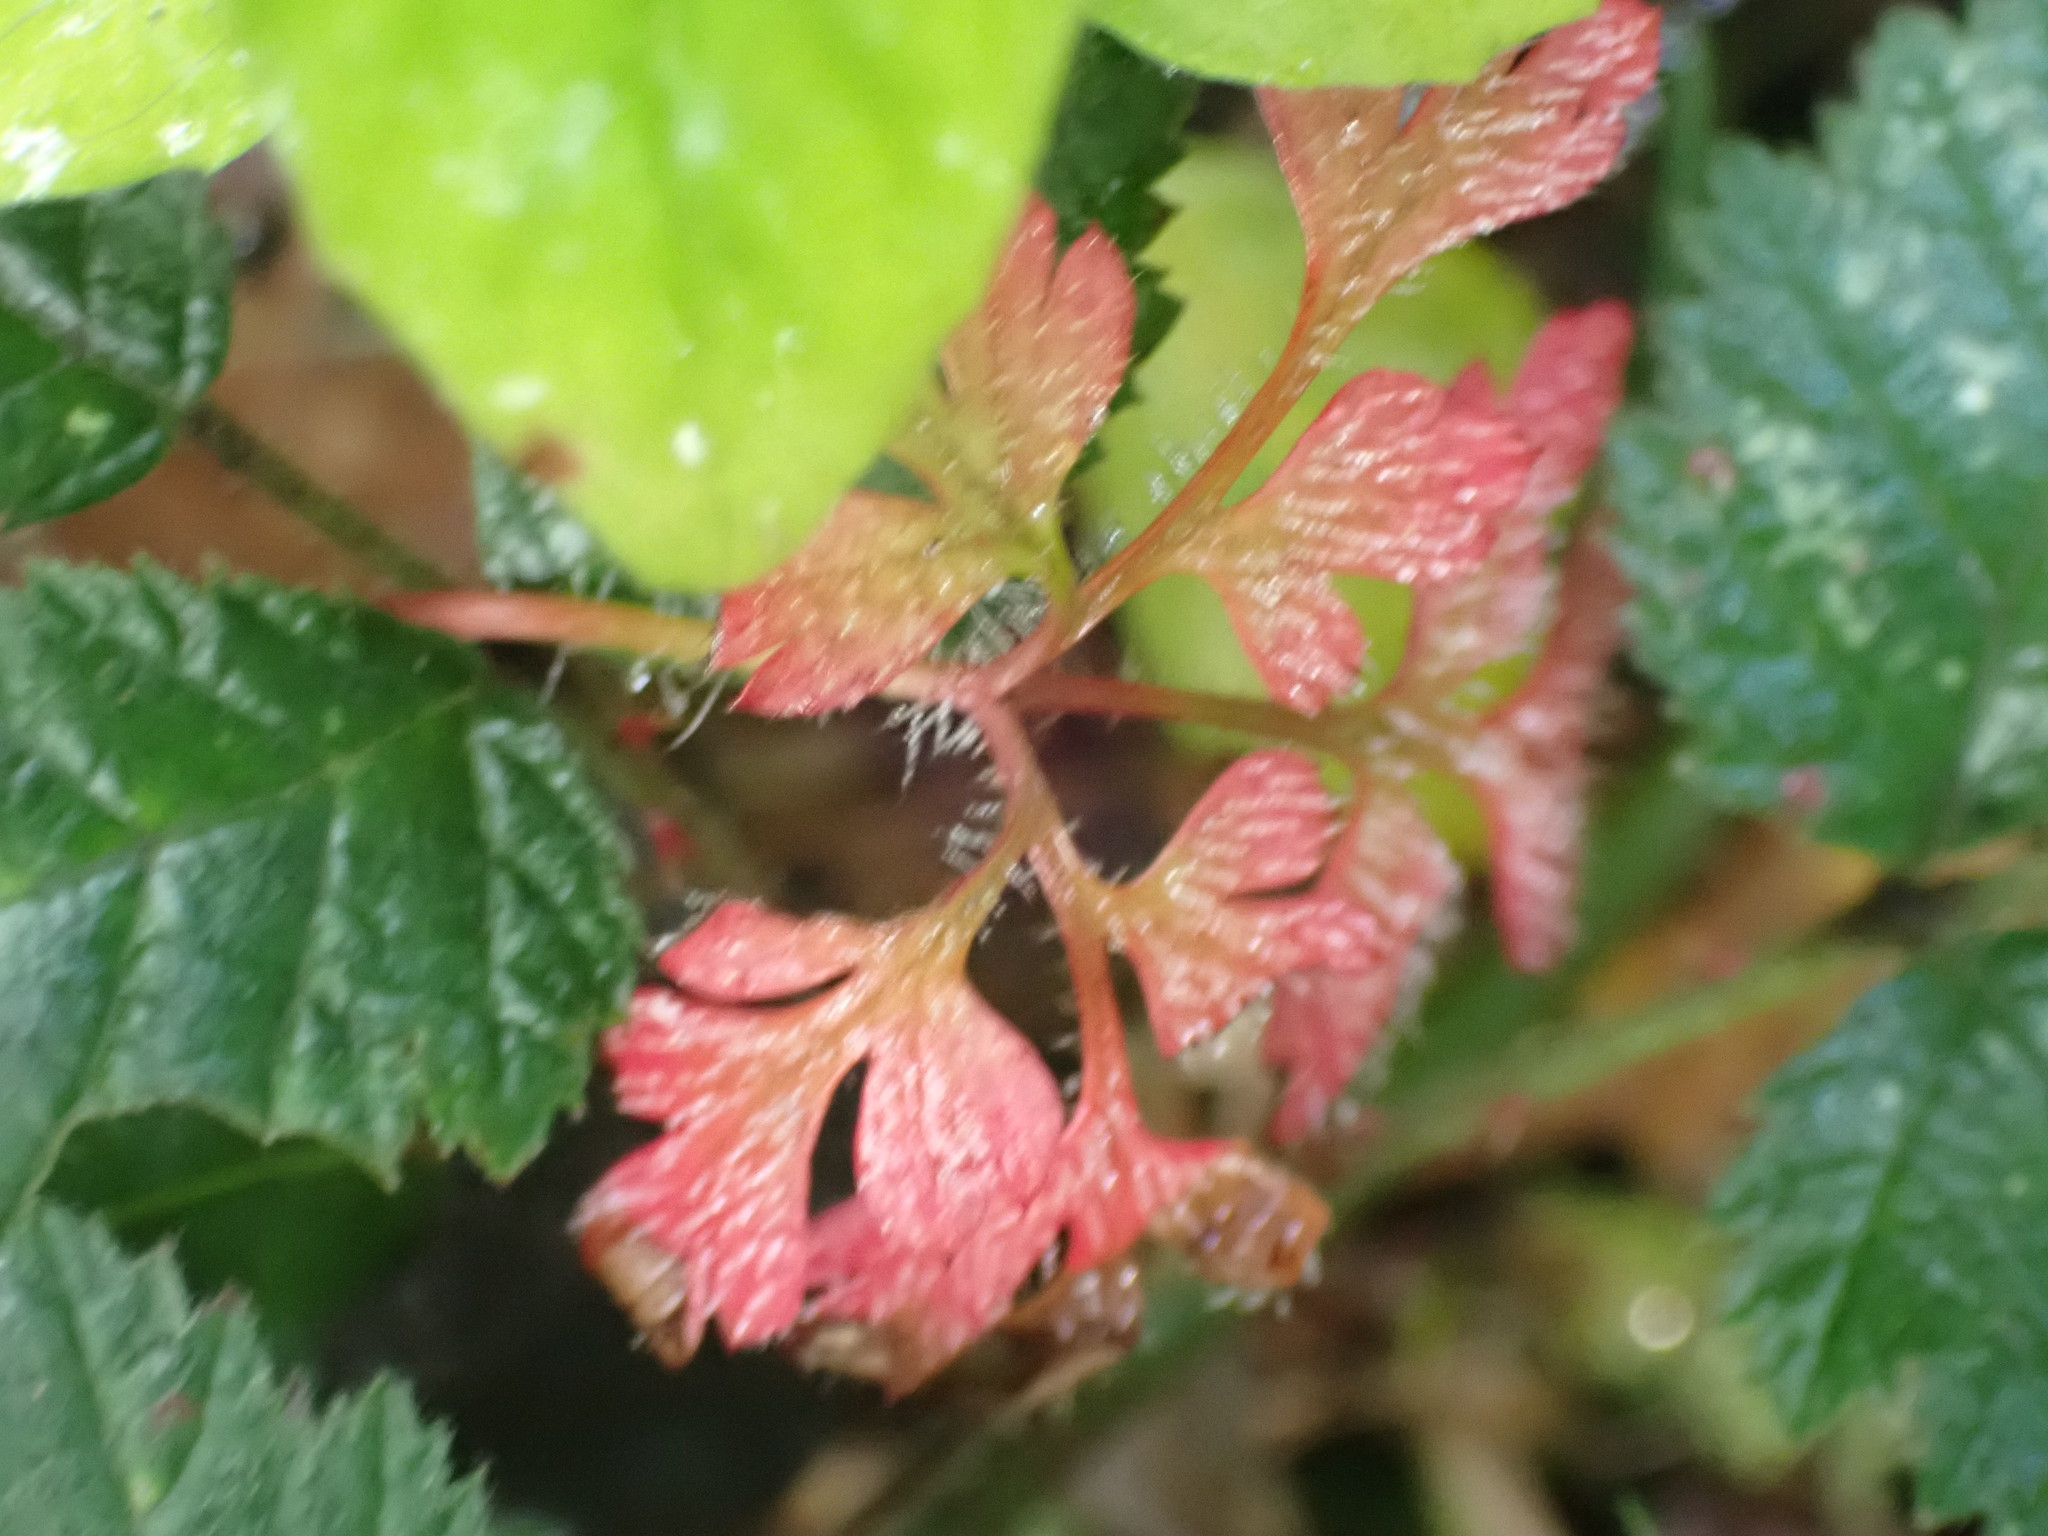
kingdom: Plantae
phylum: Tracheophyta
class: Magnoliopsida
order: Geraniales
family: Geraniaceae
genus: Geranium
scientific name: Geranium robertianum
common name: Herb-robert
